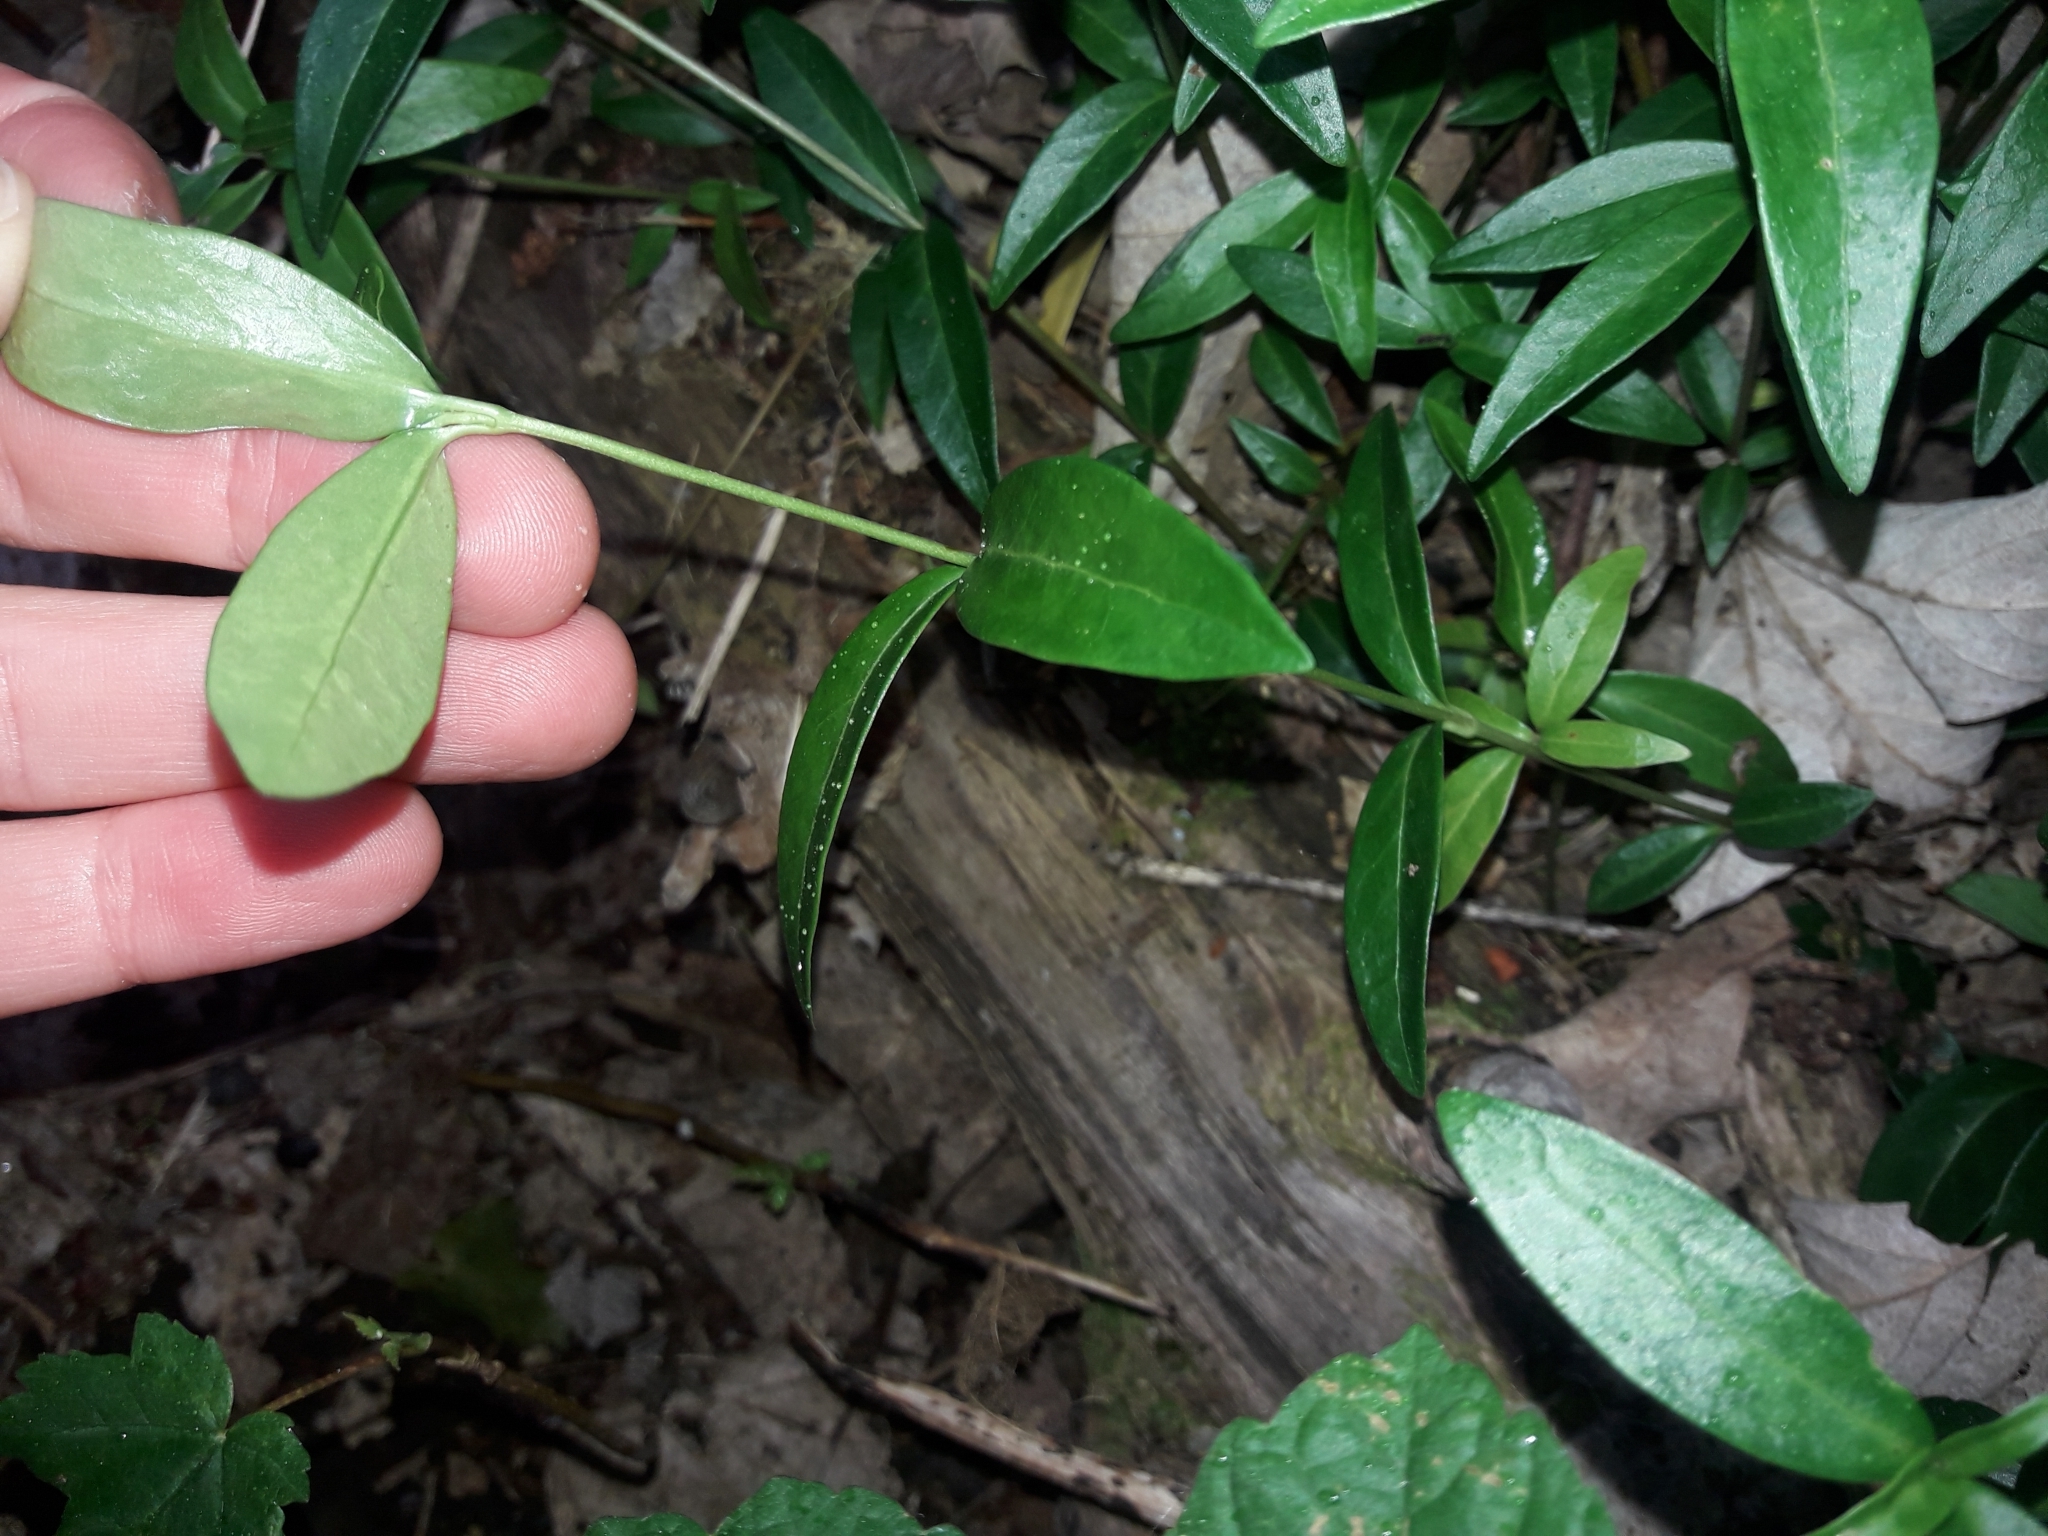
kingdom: Plantae
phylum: Tracheophyta
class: Magnoliopsida
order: Gentianales
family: Apocynaceae
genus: Vinca
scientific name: Vinca minor
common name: Lesser periwinkle
